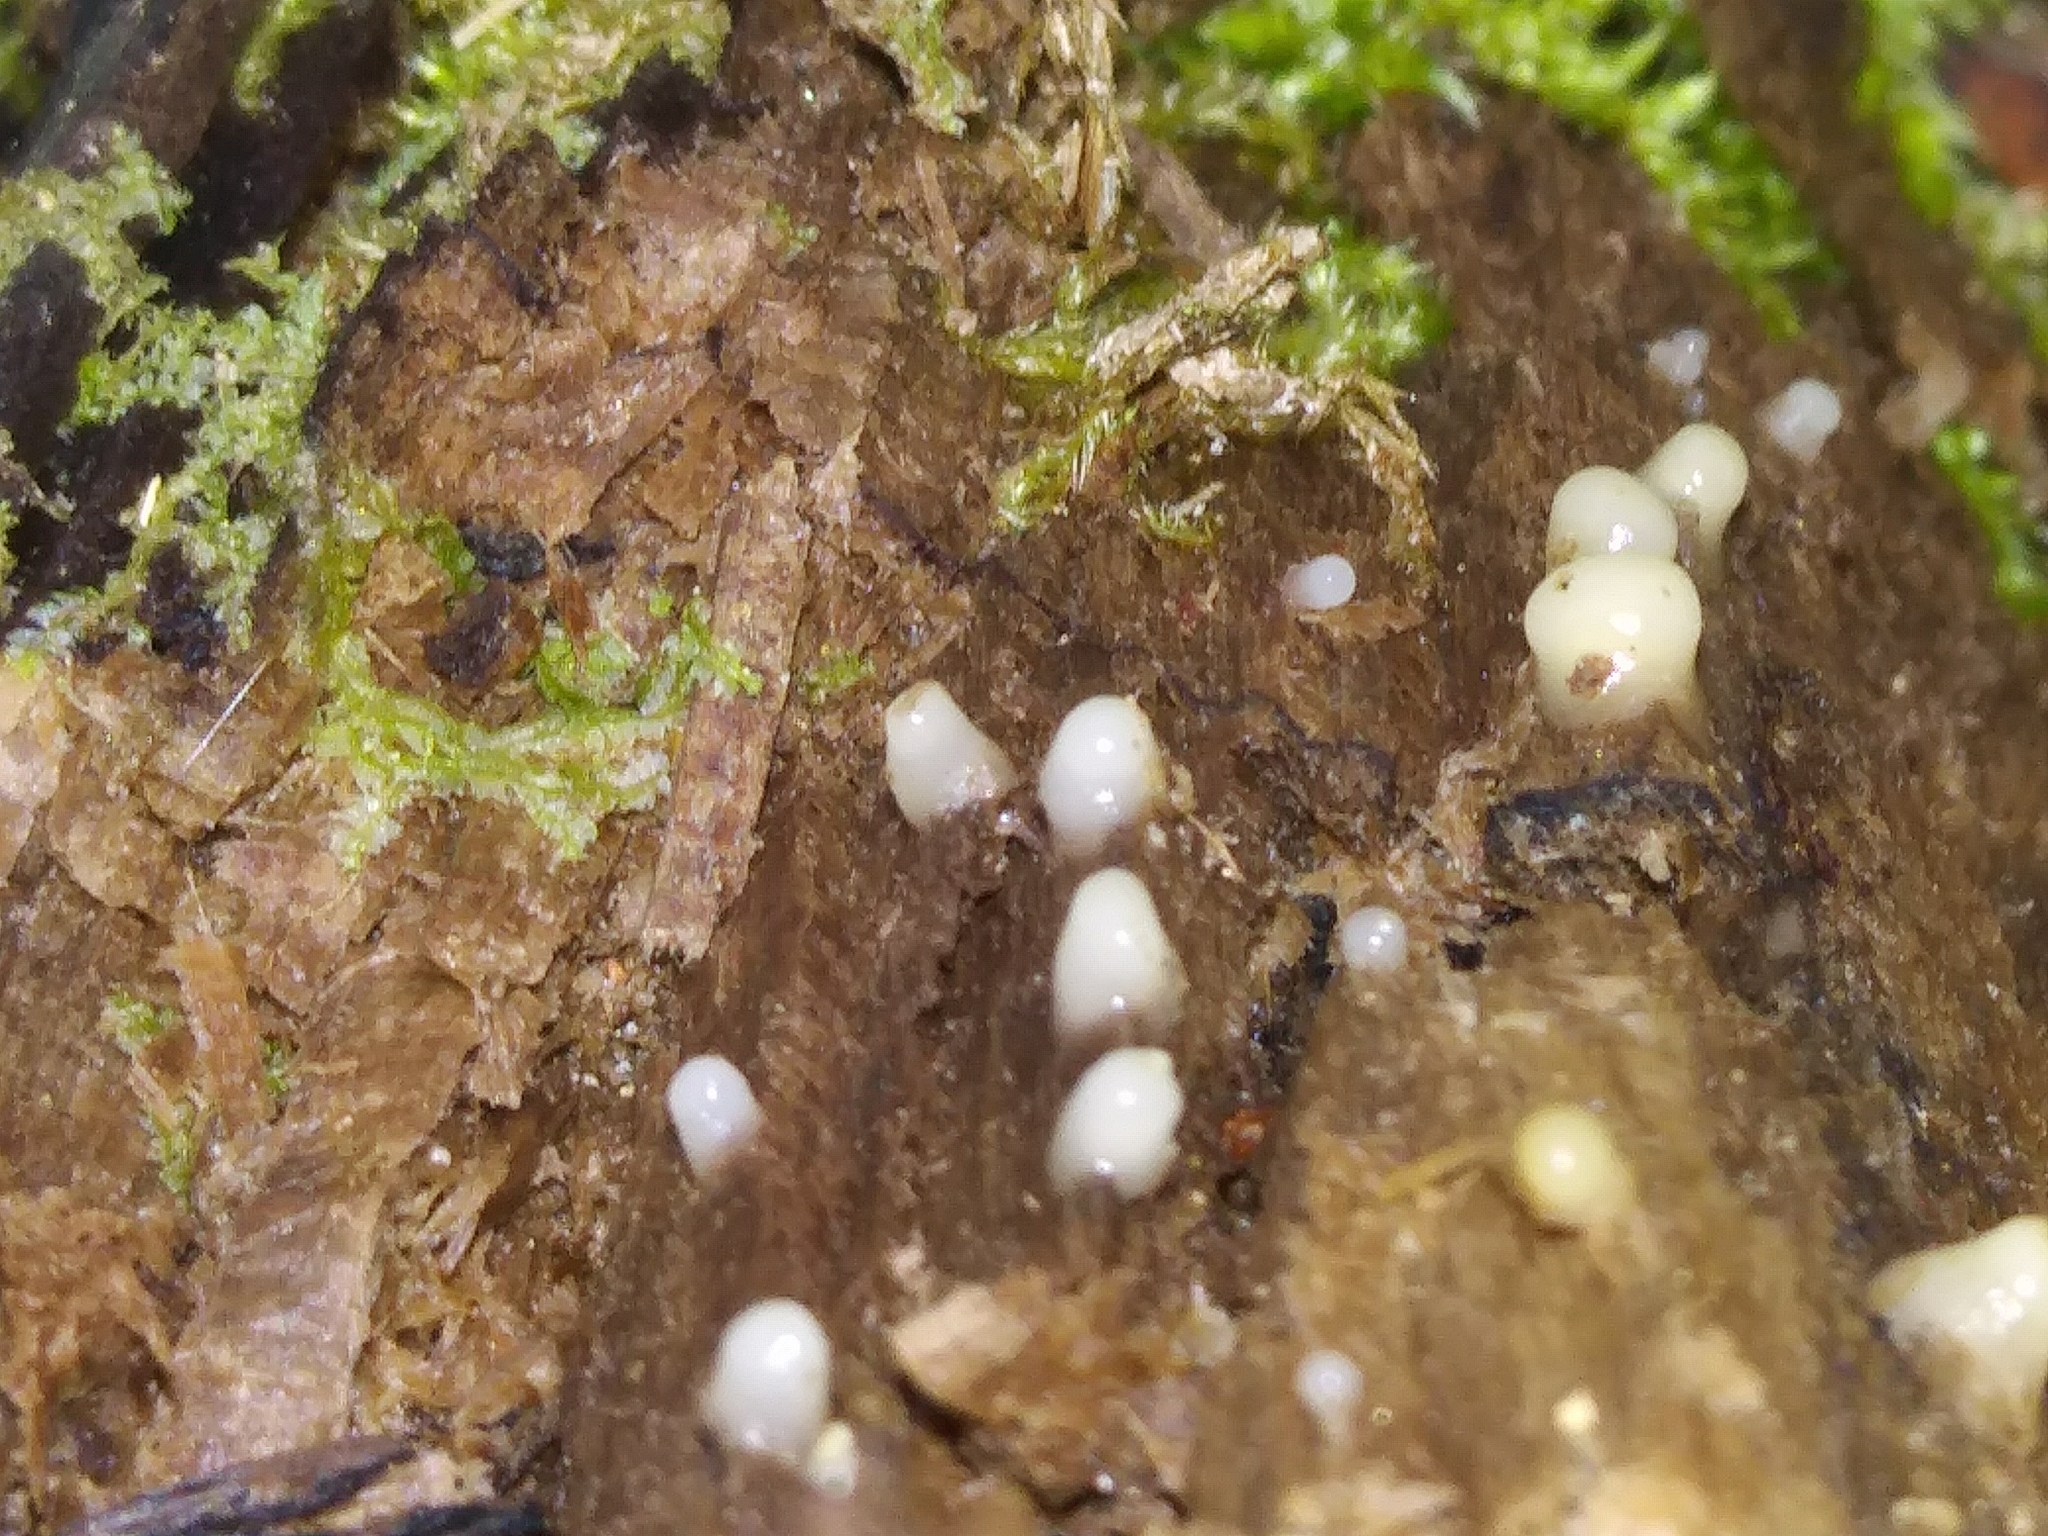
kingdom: Fungi
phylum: Basidiomycota
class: Atractiellomycetes
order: Atractiellales
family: Phleogenaceae
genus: Helicogloea
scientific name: Helicogloea compressa
